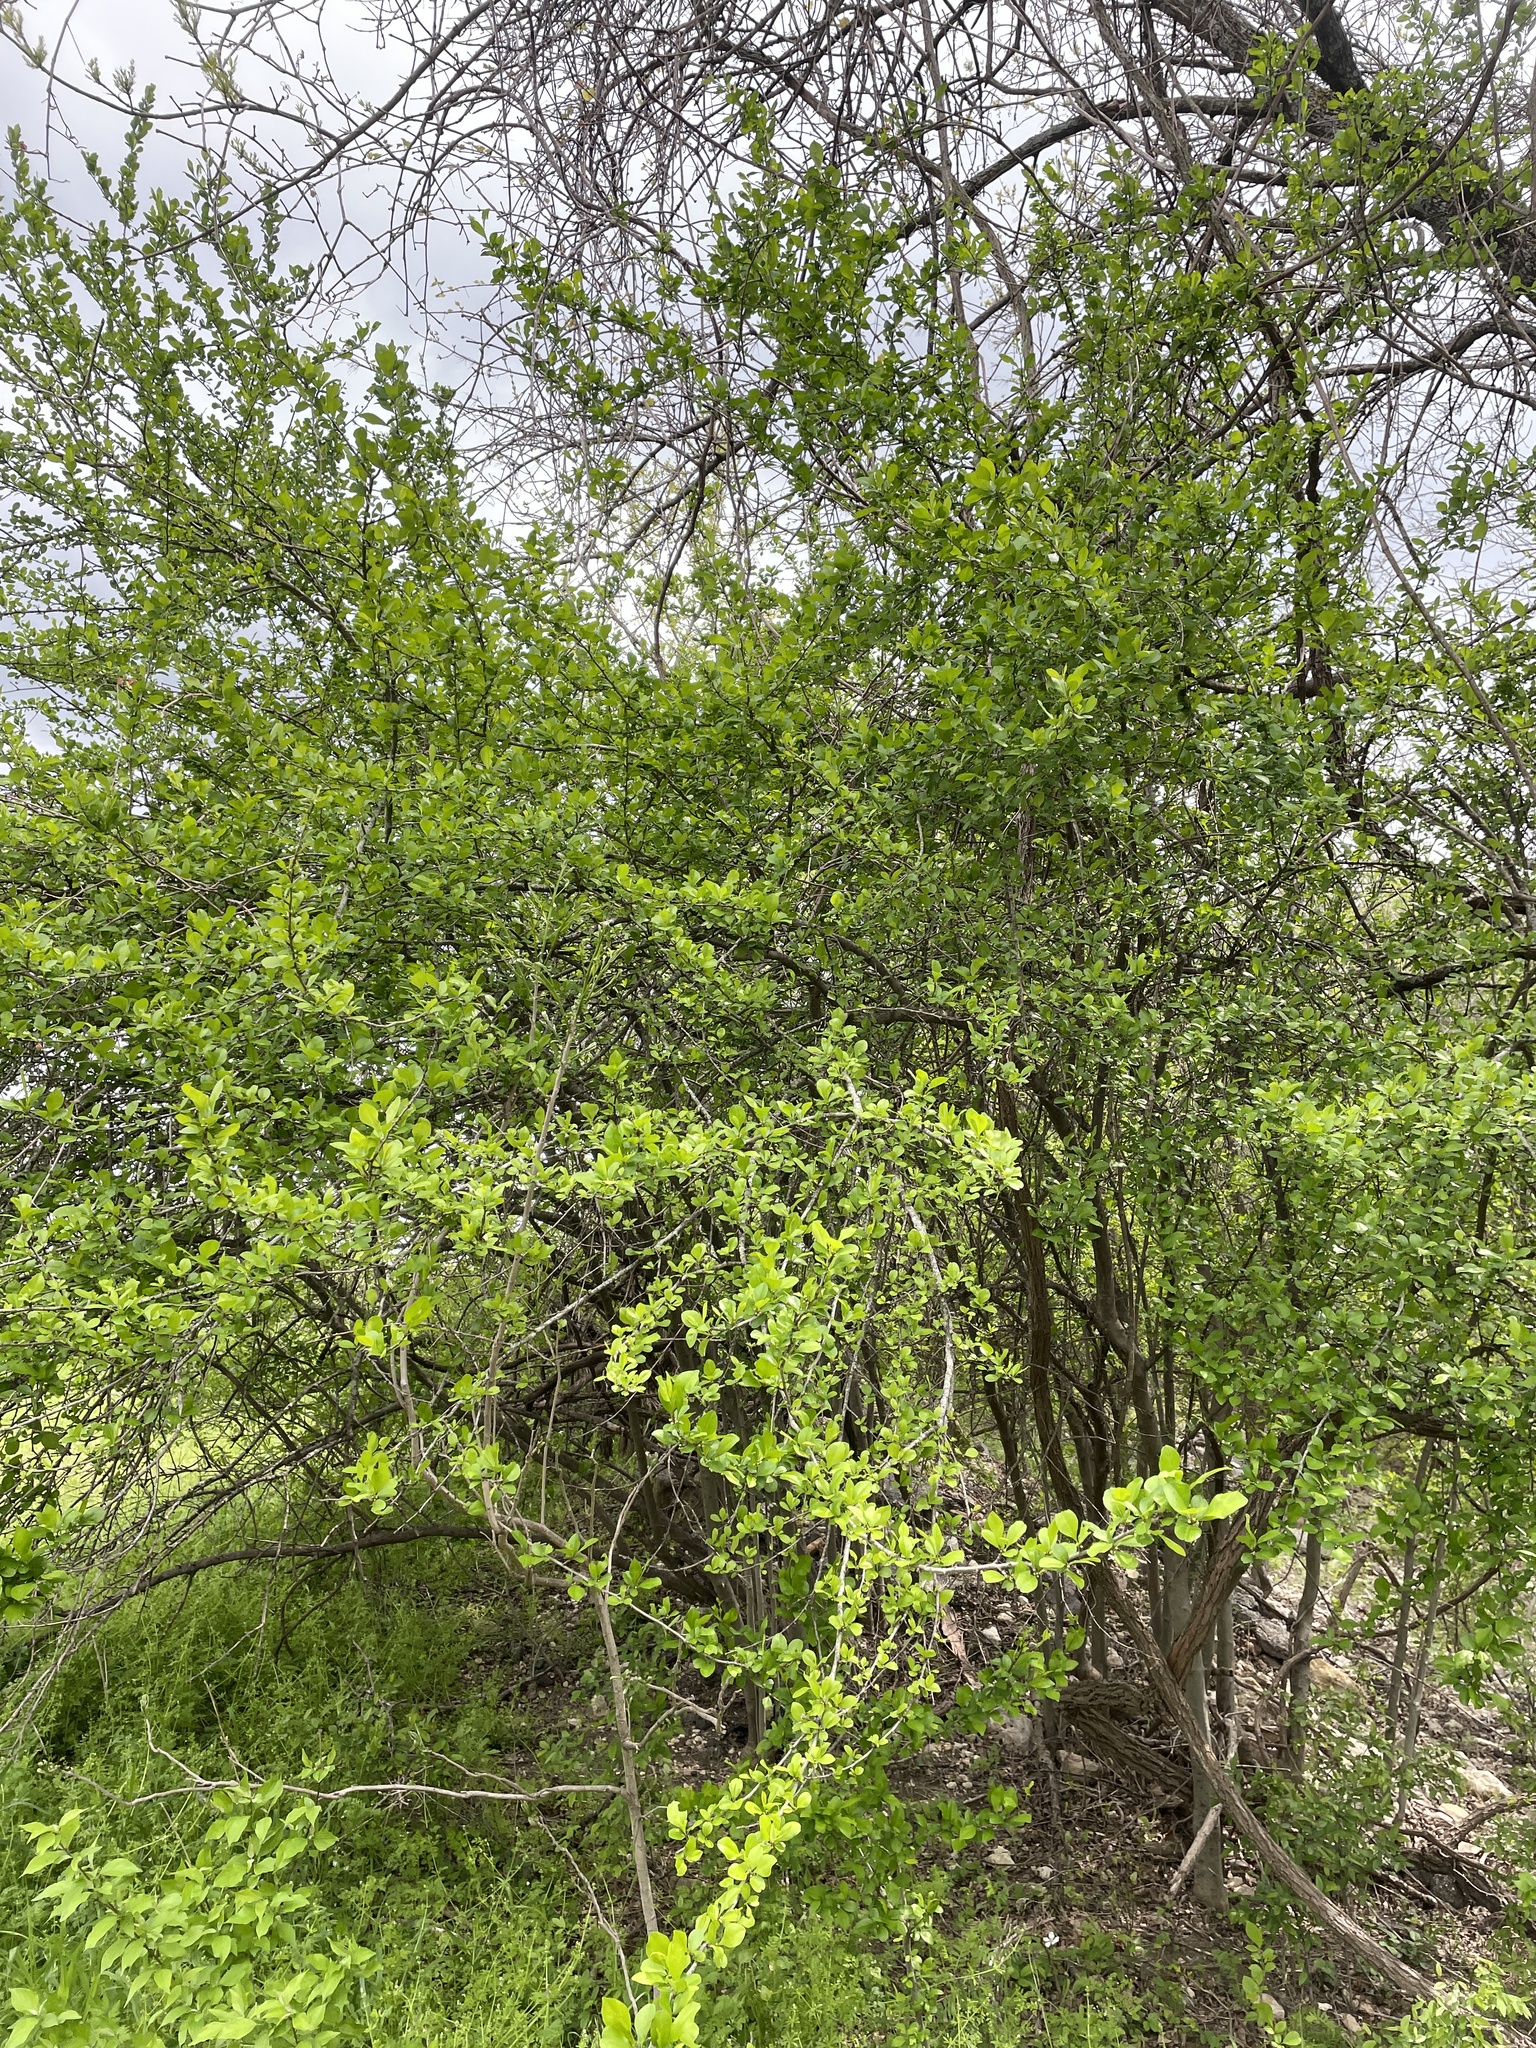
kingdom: Plantae
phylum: Tracheophyta
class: Magnoliopsida
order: Aquifoliales
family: Aquifoliaceae
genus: Ilex
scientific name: Ilex decidua
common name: Possum-haw
